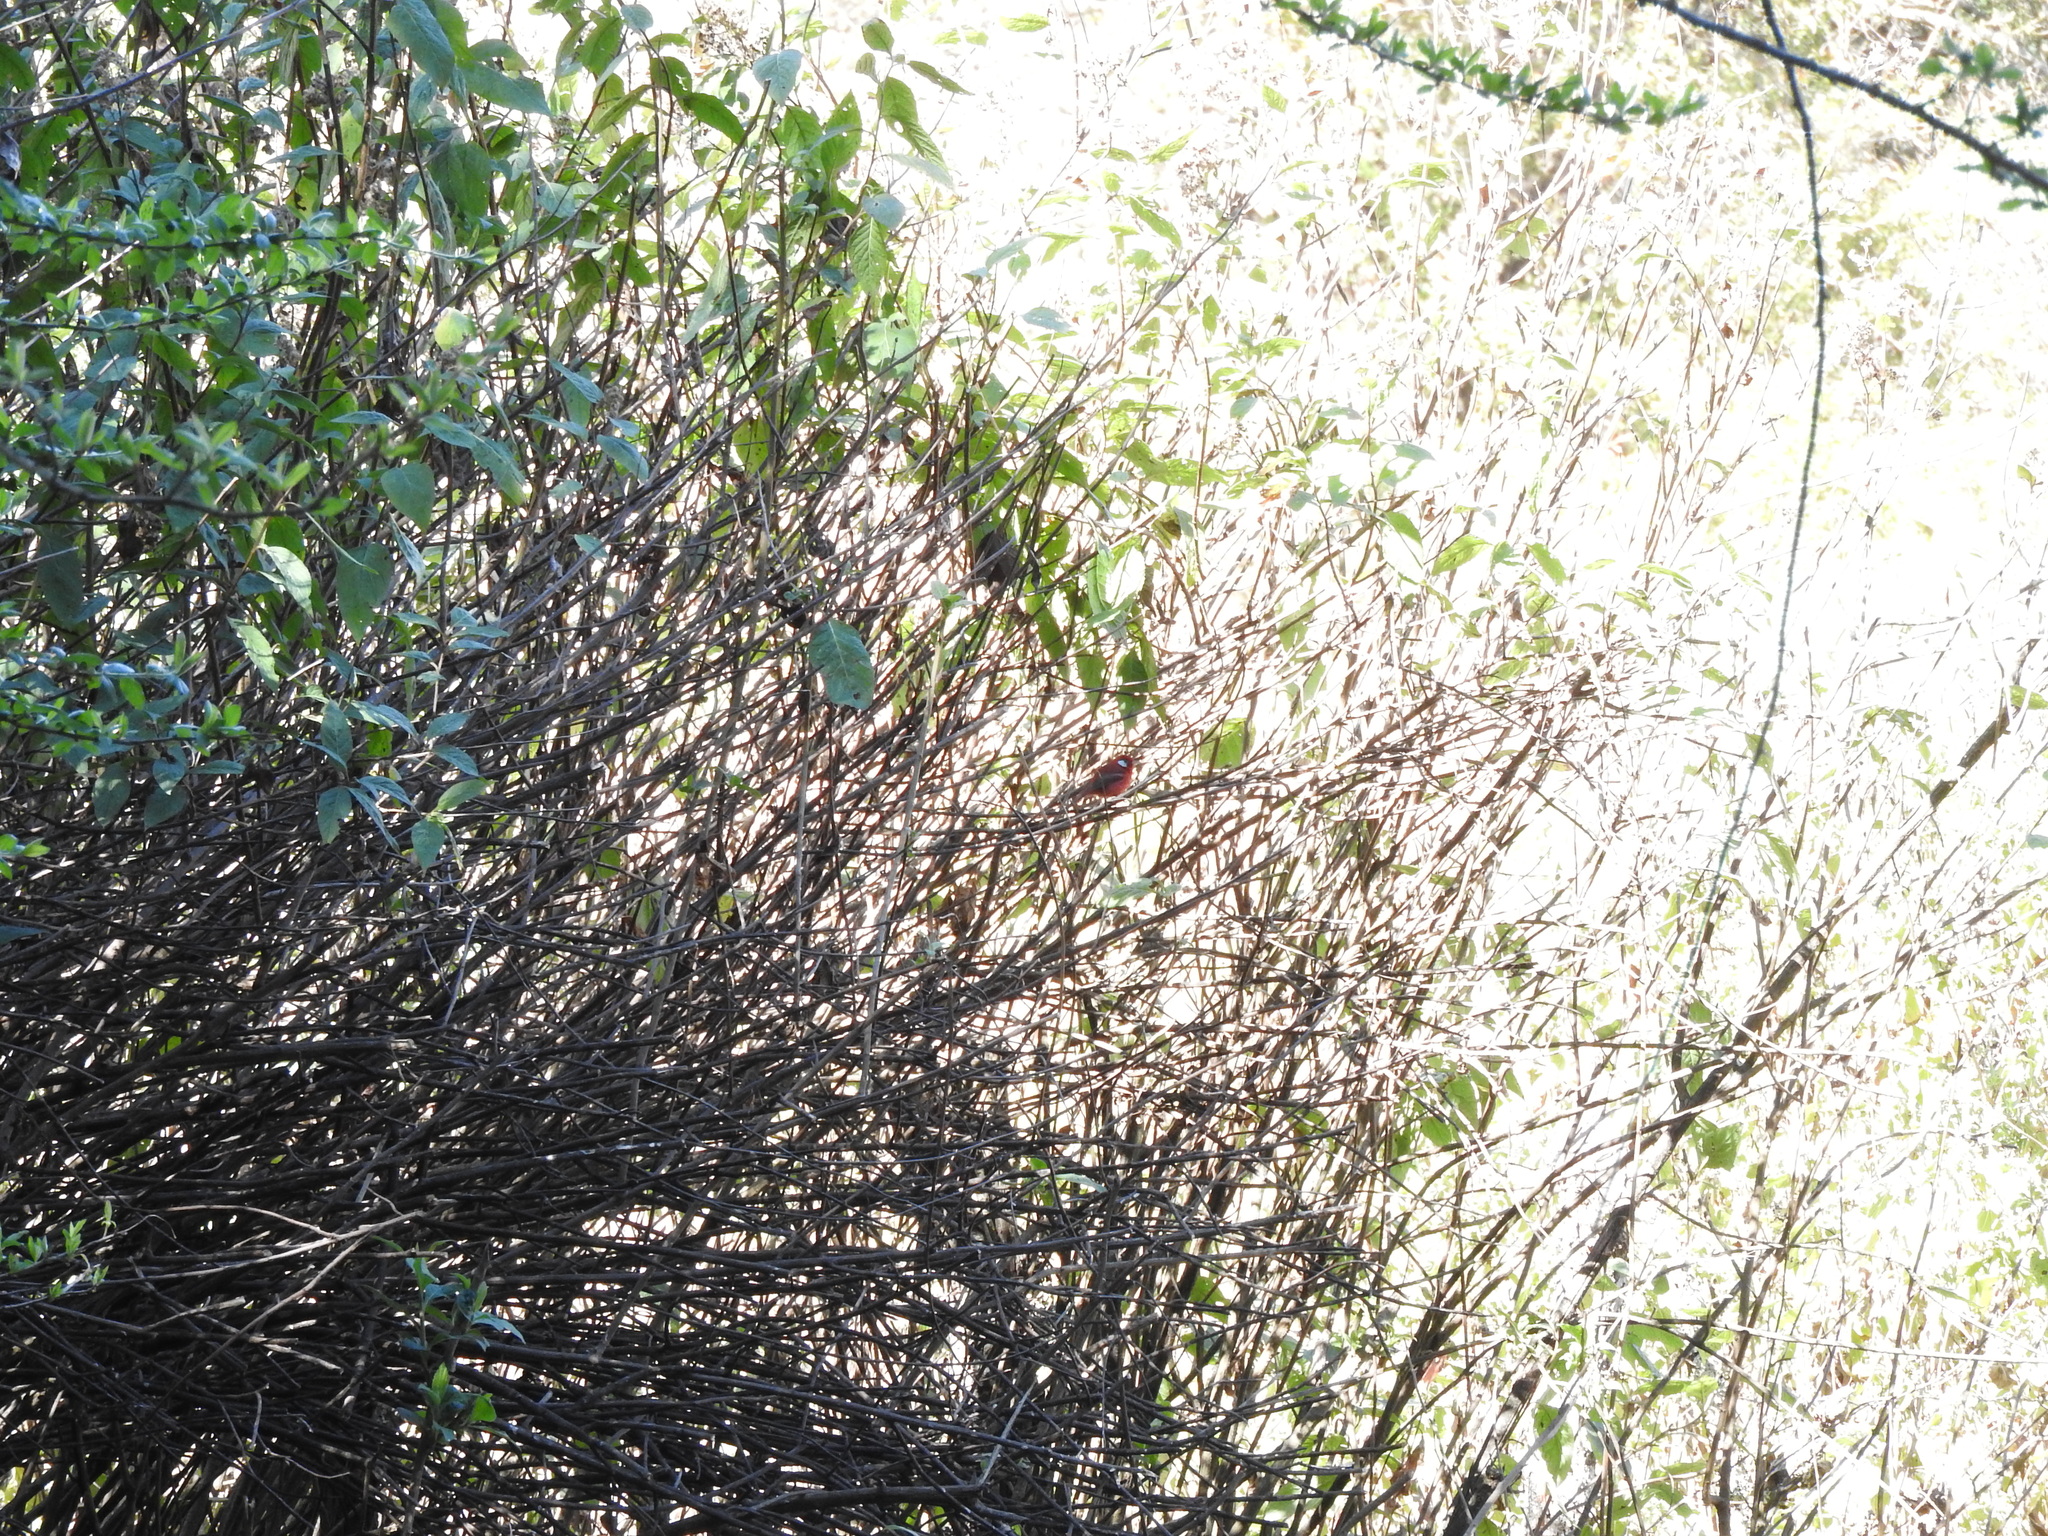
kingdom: Animalia
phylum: Chordata
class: Aves
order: Passeriformes
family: Parulidae
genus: Cardellina
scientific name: Cardellina rubra
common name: Red warbler
